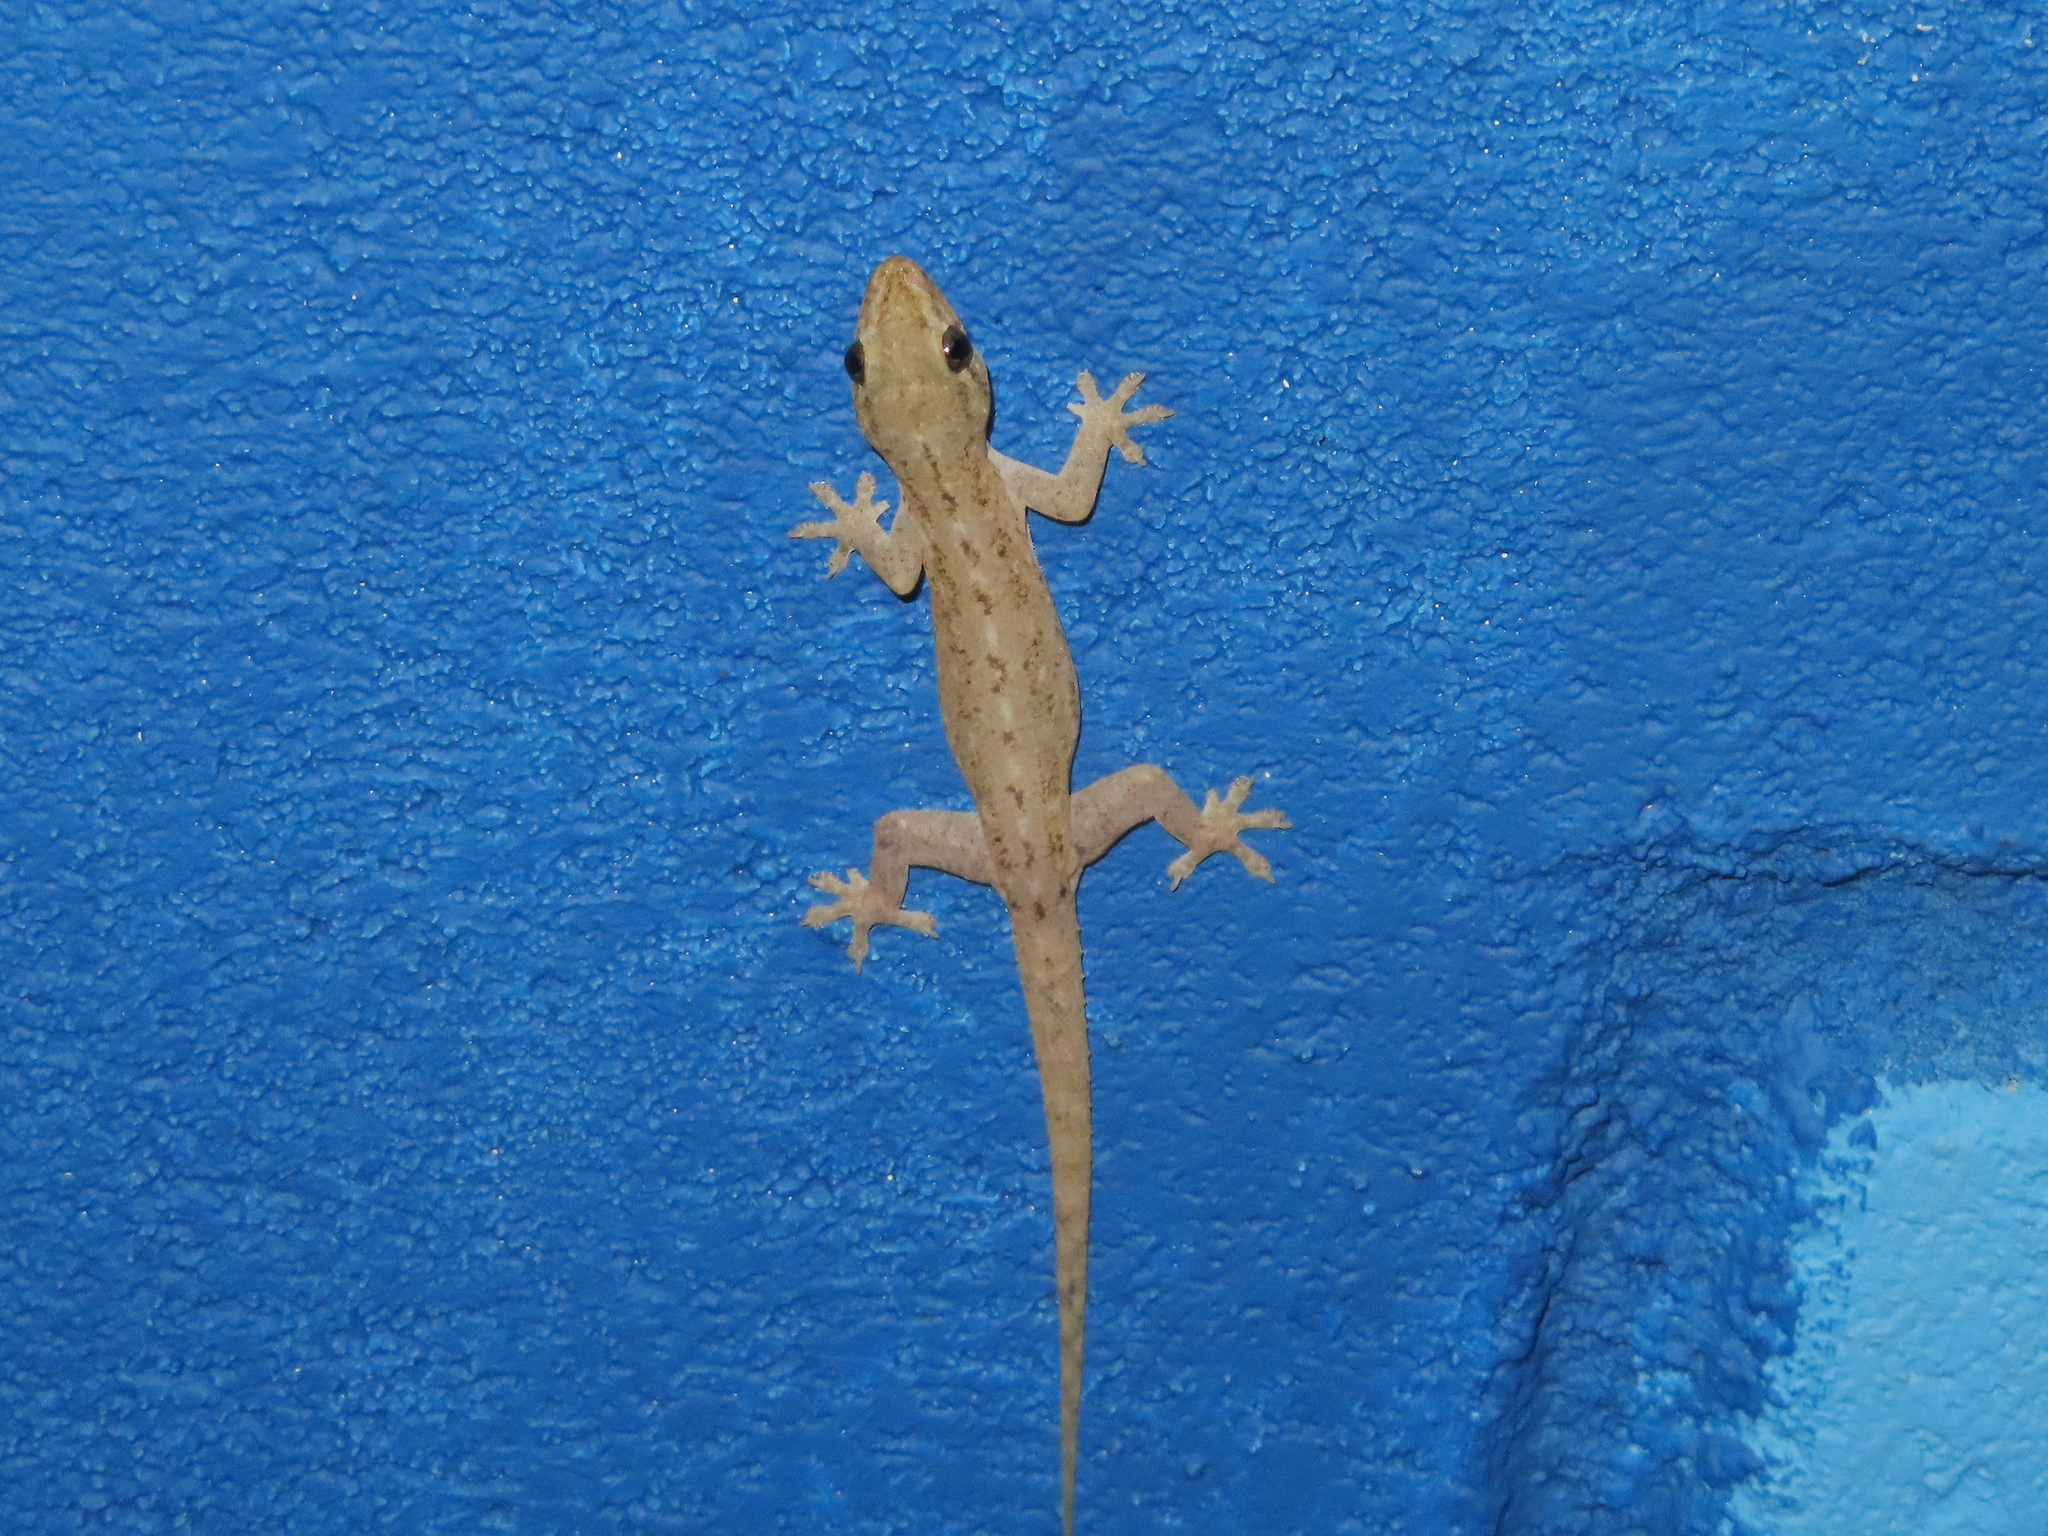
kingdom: Animalia
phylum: Chordata
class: Squamata
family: Gekkonidae
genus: Hemidactylus
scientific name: Hemidactylus frenatus
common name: Common house gecko
